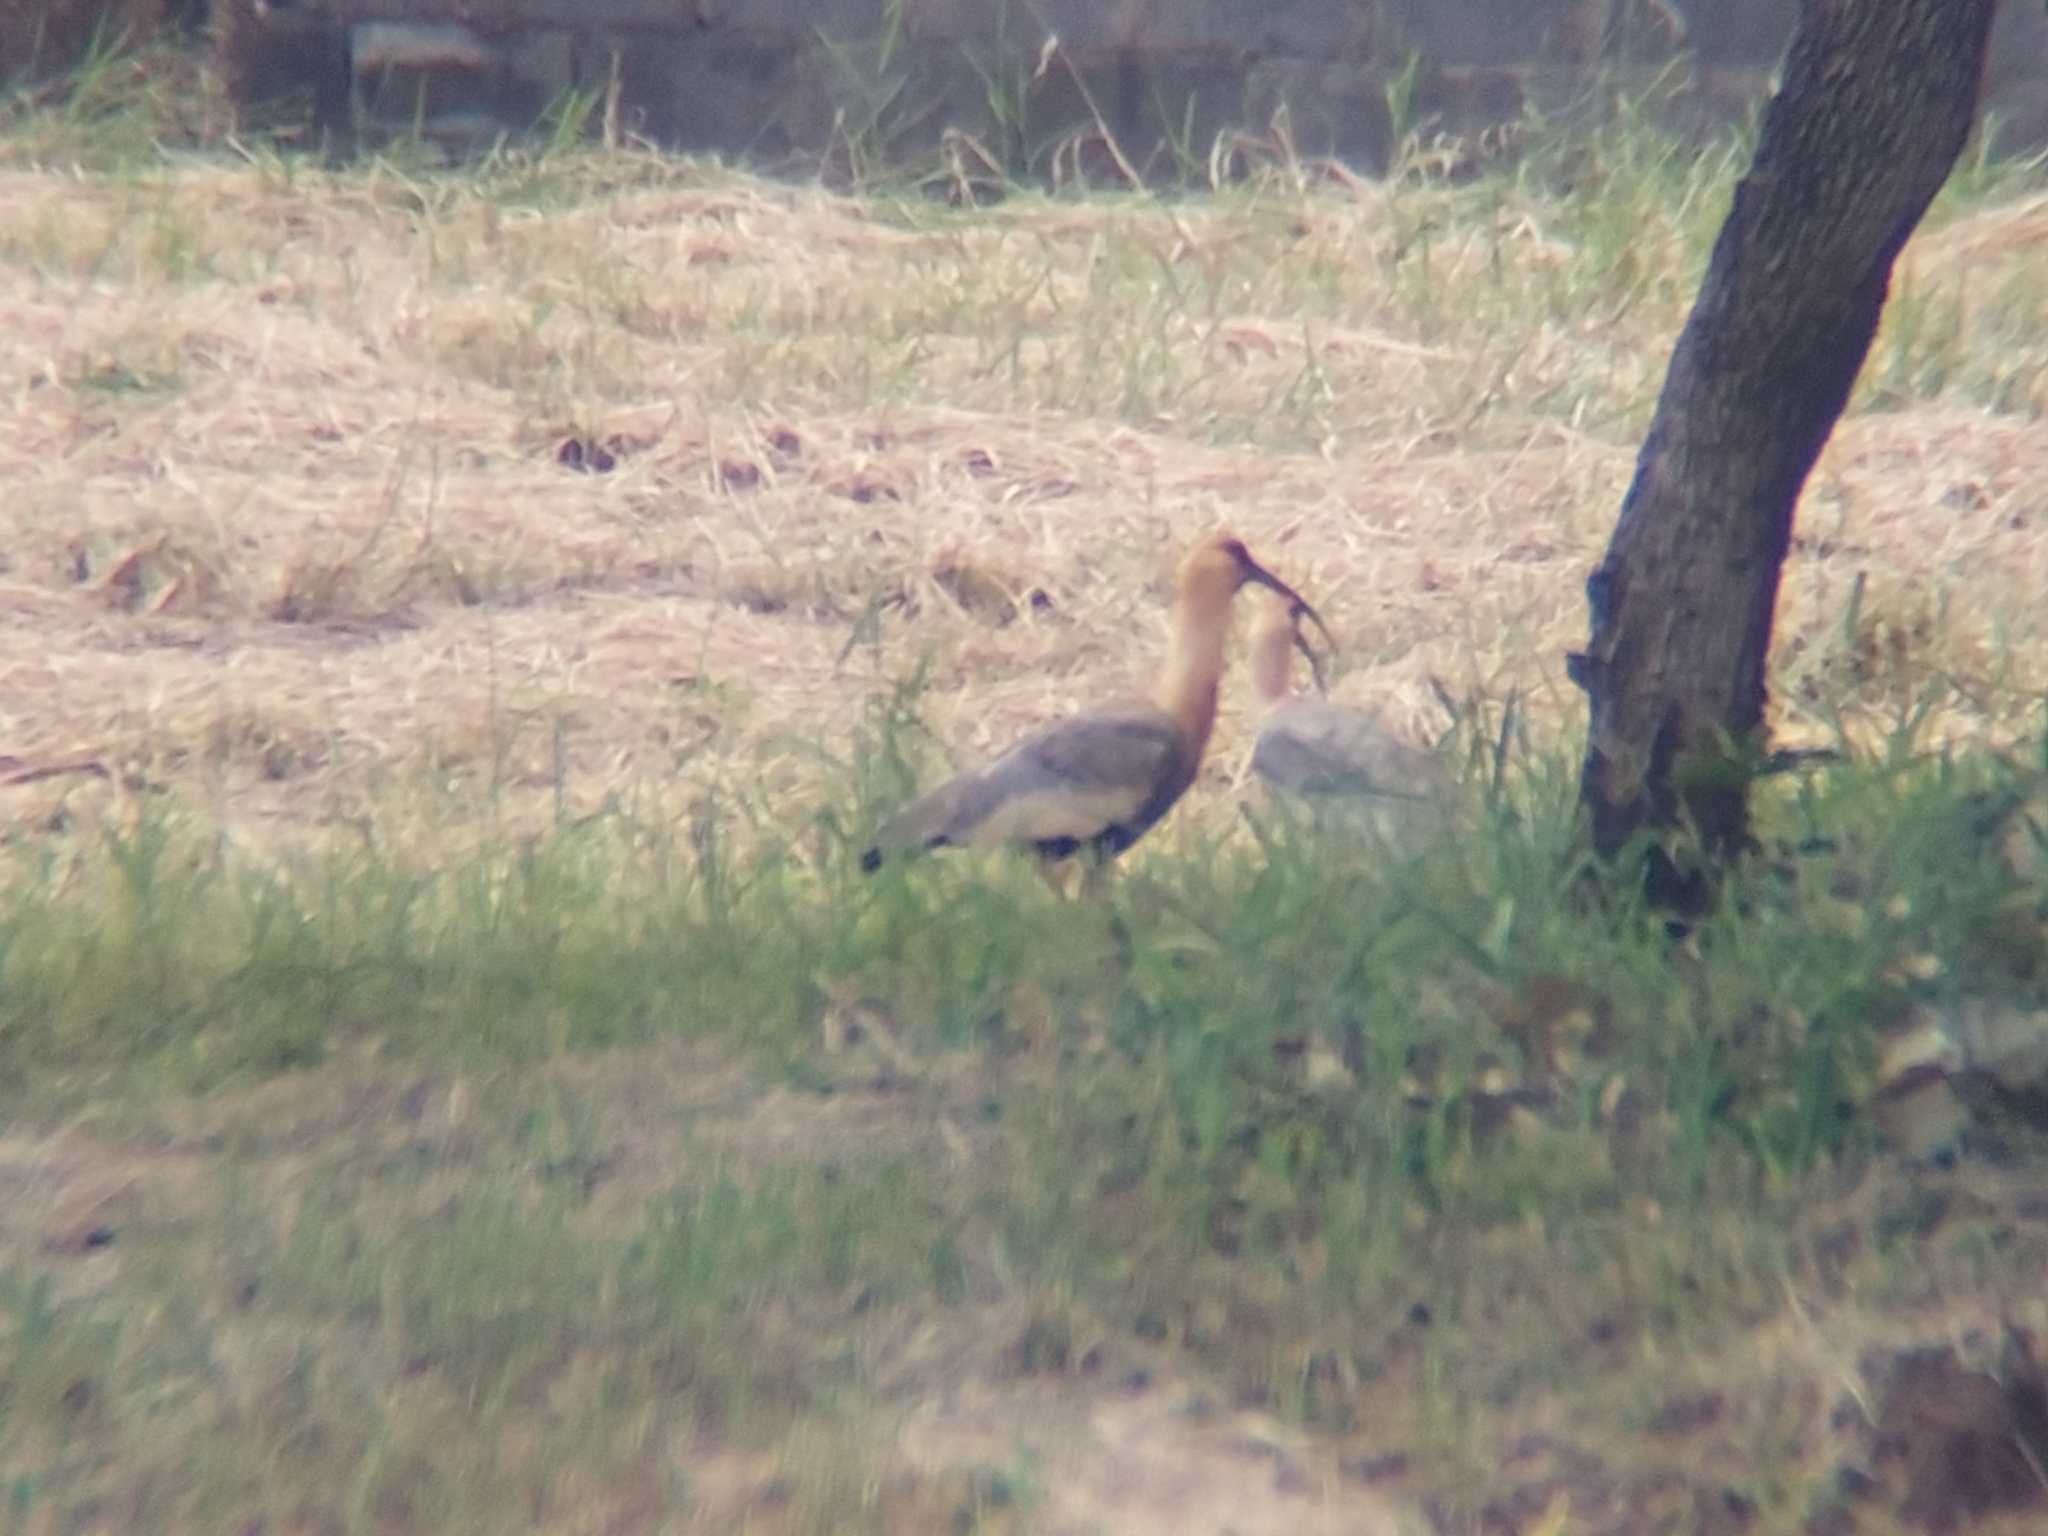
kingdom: Animalia
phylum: Chordata
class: Aves
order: Pelecaniformes
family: Threskiornithidae
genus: Theristicus
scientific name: Theristicus caudatus
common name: Buff-necked ibis
